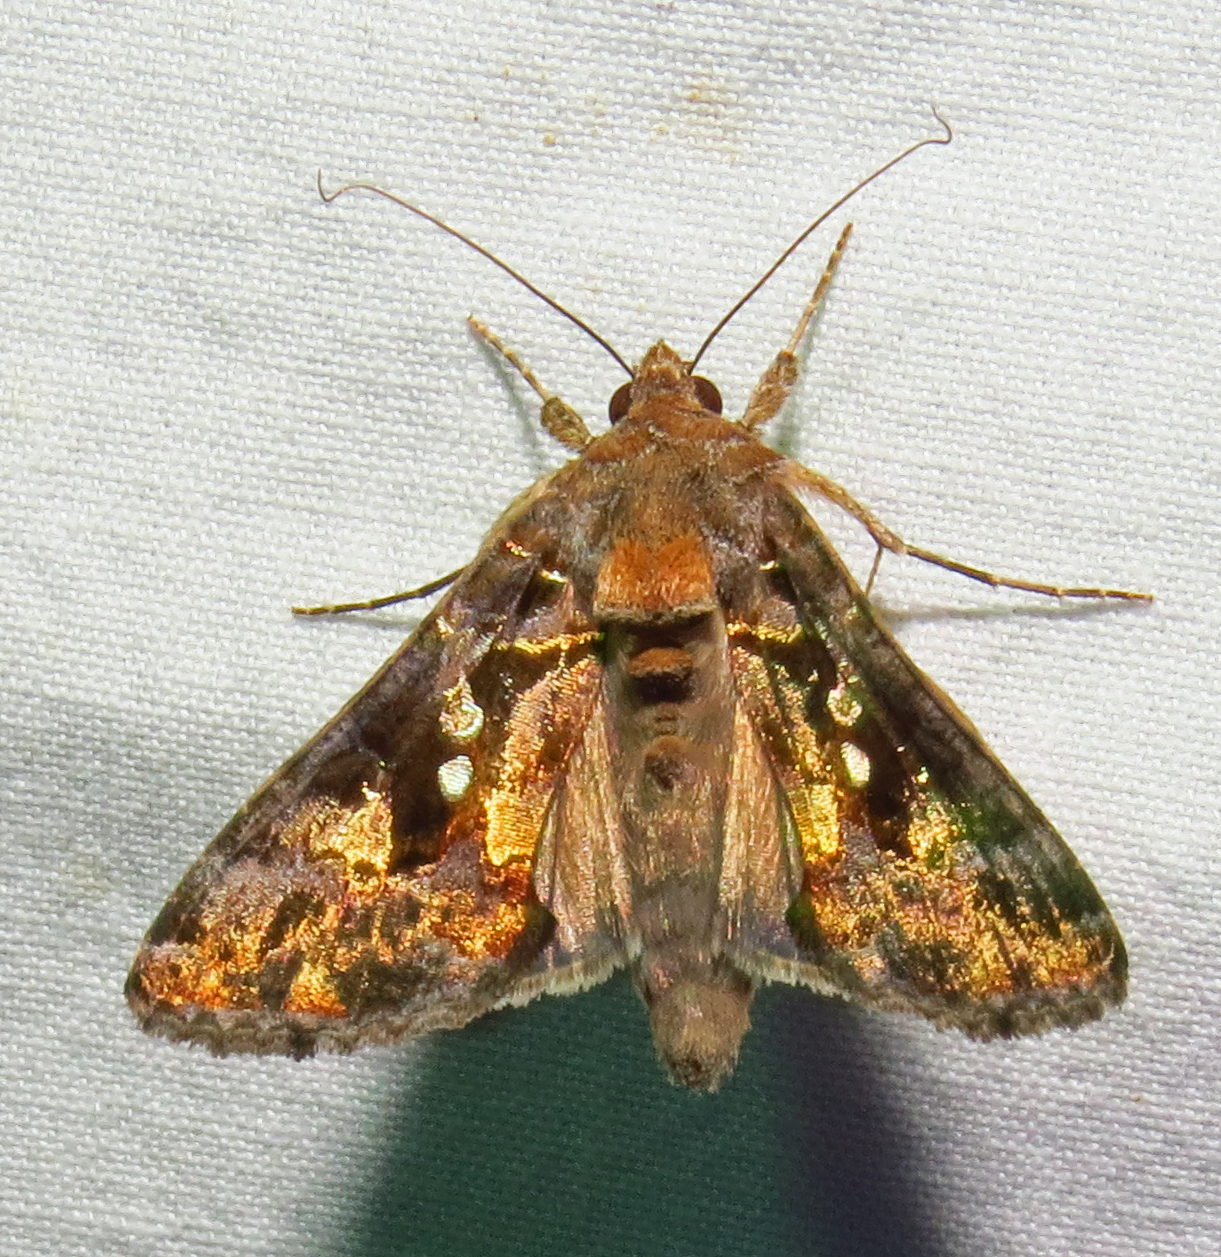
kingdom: Animalia
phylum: Arthropoda
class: Insecta
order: Lepidoptera
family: Noctuidae
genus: Chrysodeixis
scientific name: Chrysodeixis includens
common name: Cutworm moth
